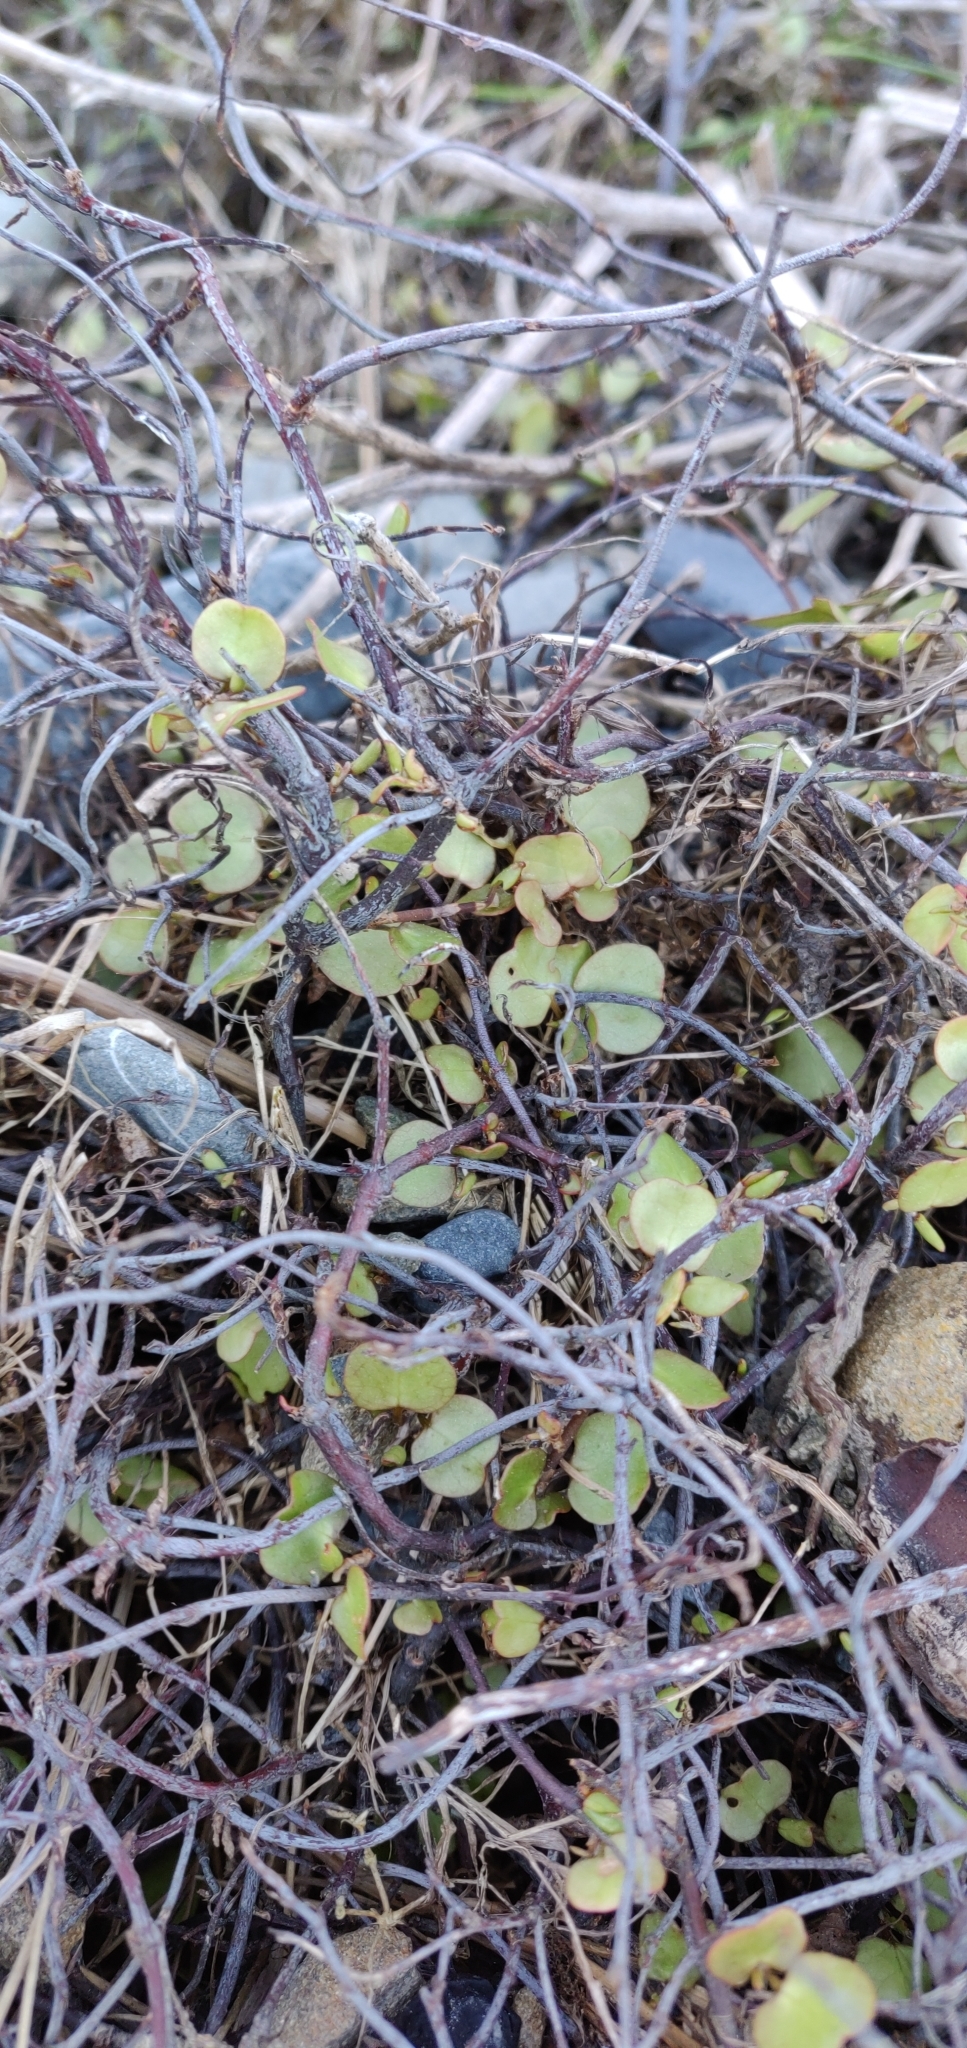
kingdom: Plantae
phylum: Tracheophyta
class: Magnoliopsida
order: Caryophyllales
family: Polygonaceae
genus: Muehlenbeckia
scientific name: Muehlenbeckia complexa
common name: Wireplant
